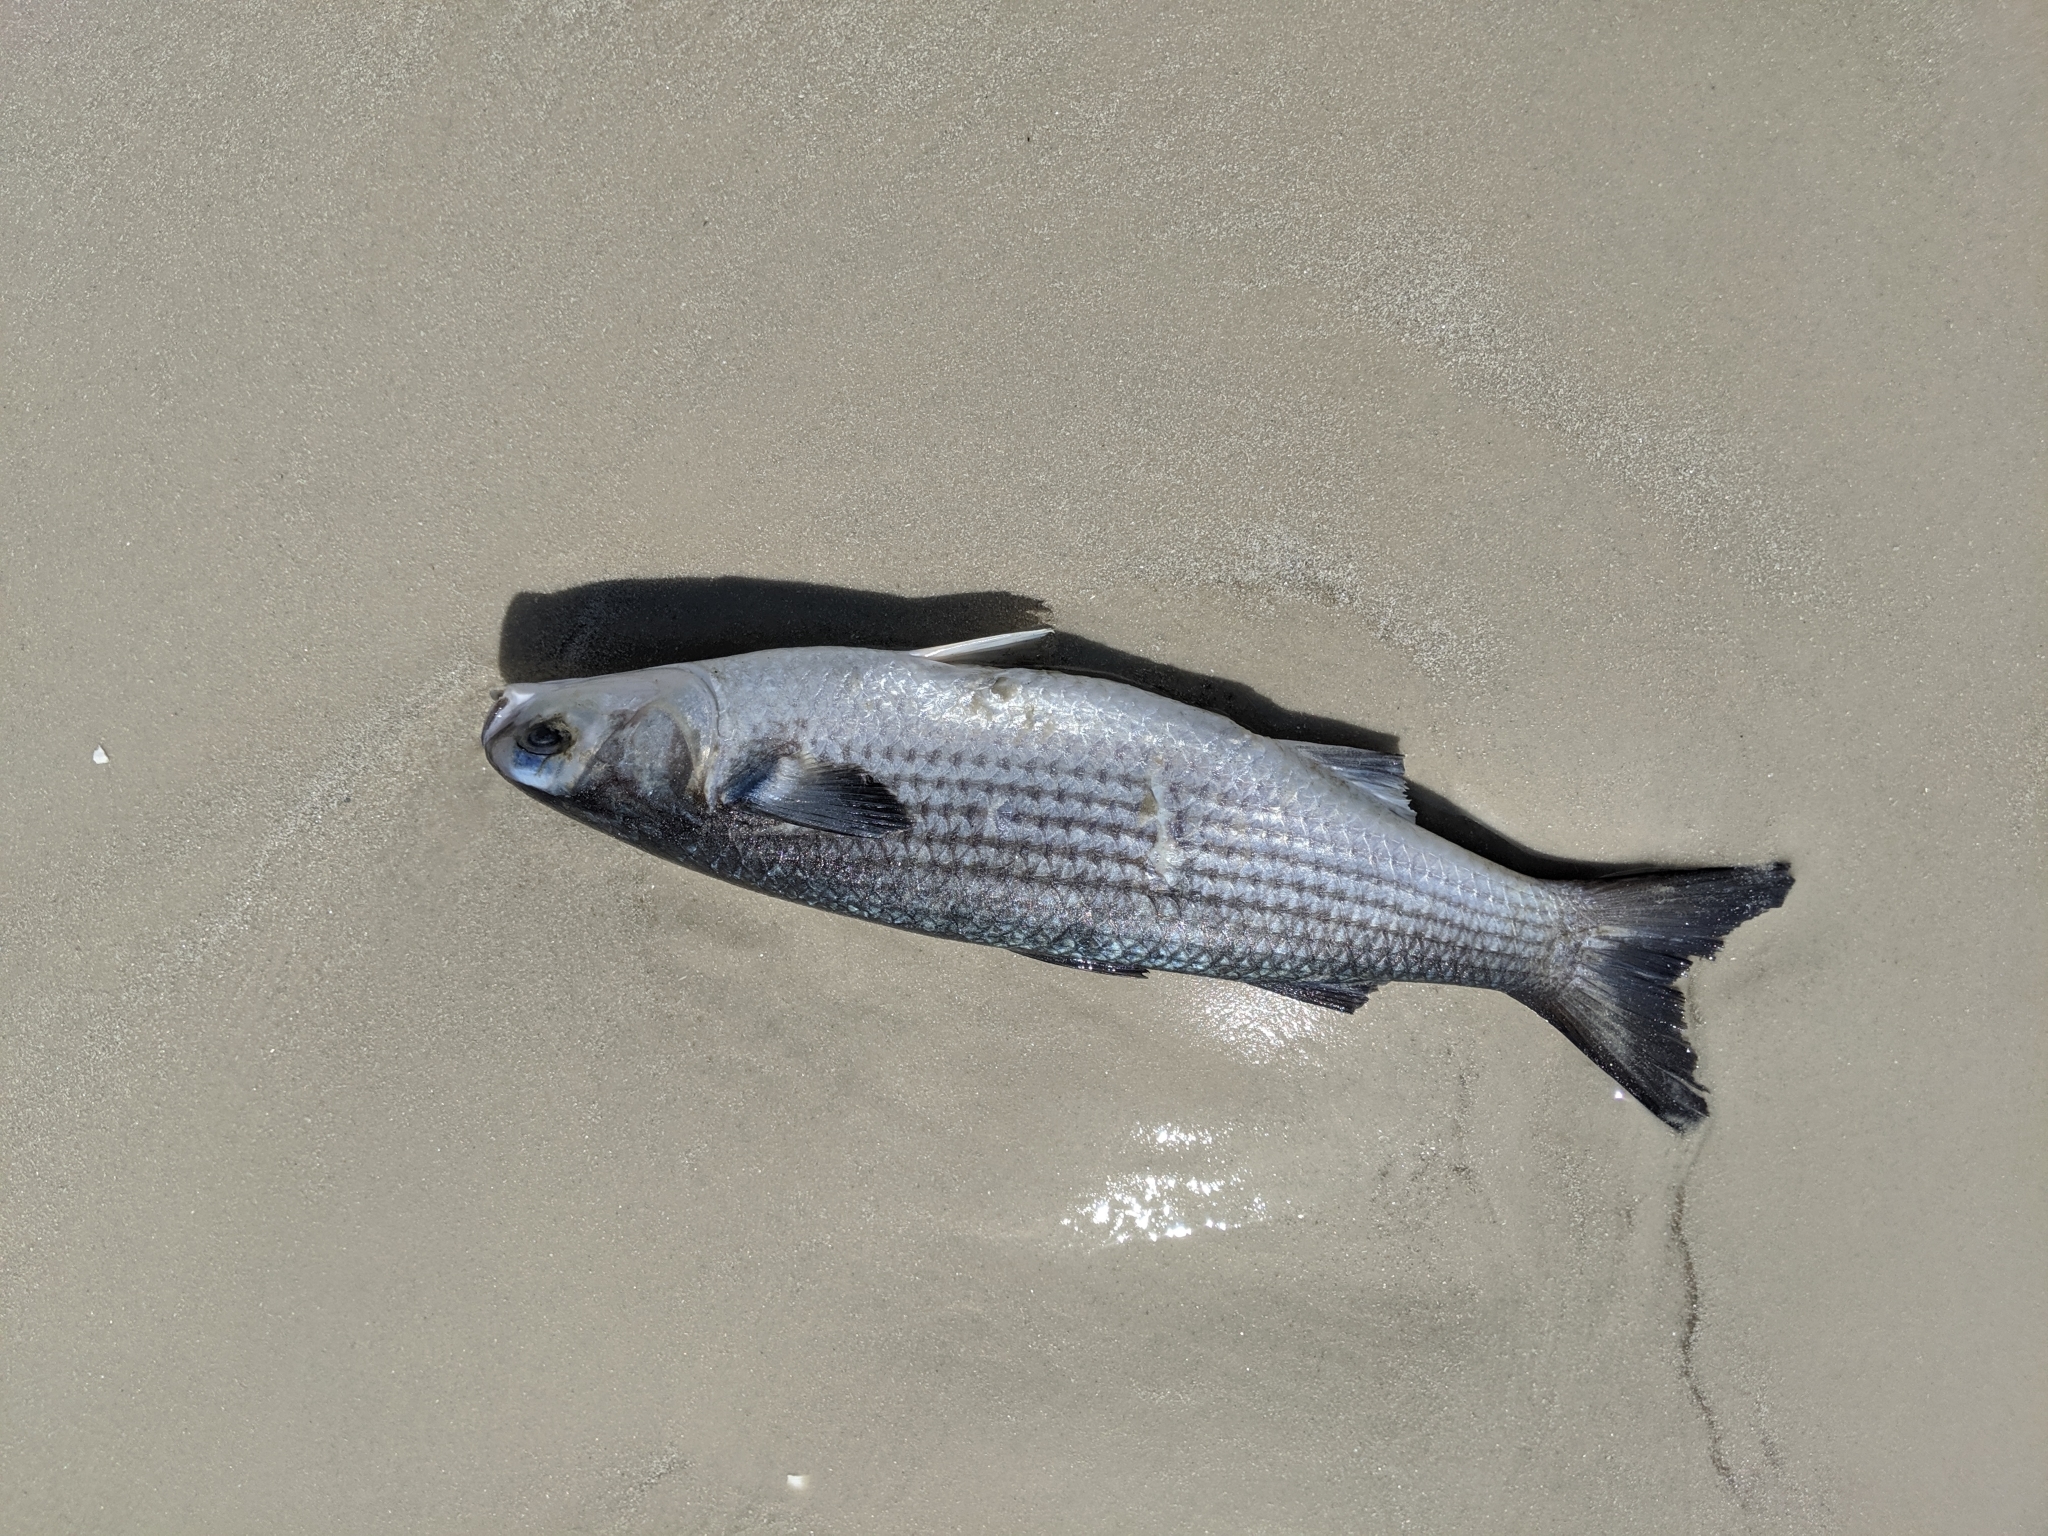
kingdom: Animalia
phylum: Chordata
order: Mugiliformes
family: Mugilidae
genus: Mugil
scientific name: Mugil cephalus
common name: Grey mullet
